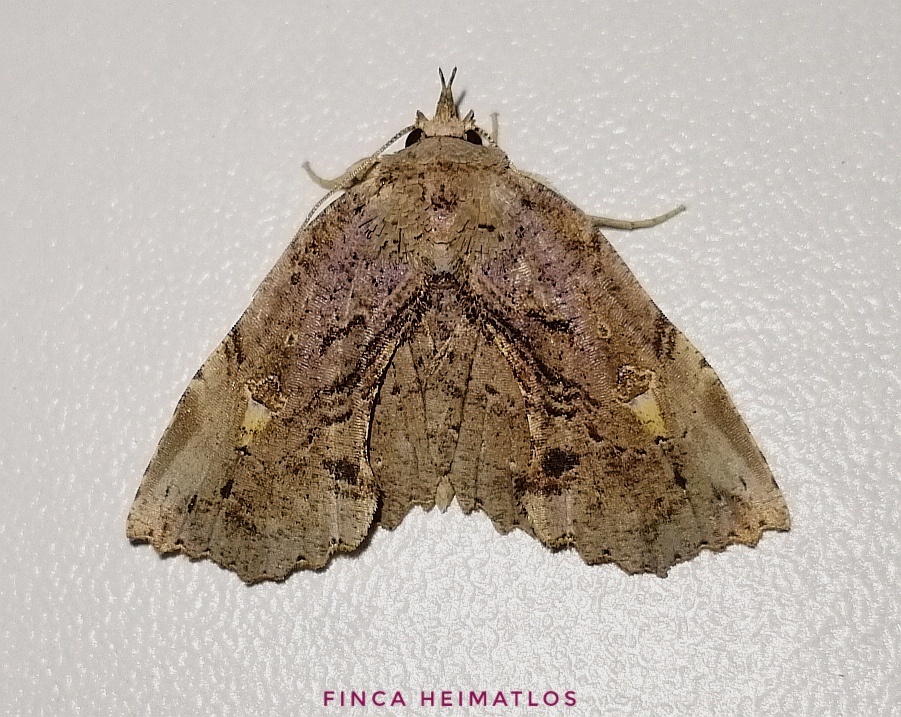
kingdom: Animalia
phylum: Arthropoda
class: Insecta
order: Lepidoptera
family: Erebidae
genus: Oroscopa
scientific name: Oroscopa belus
